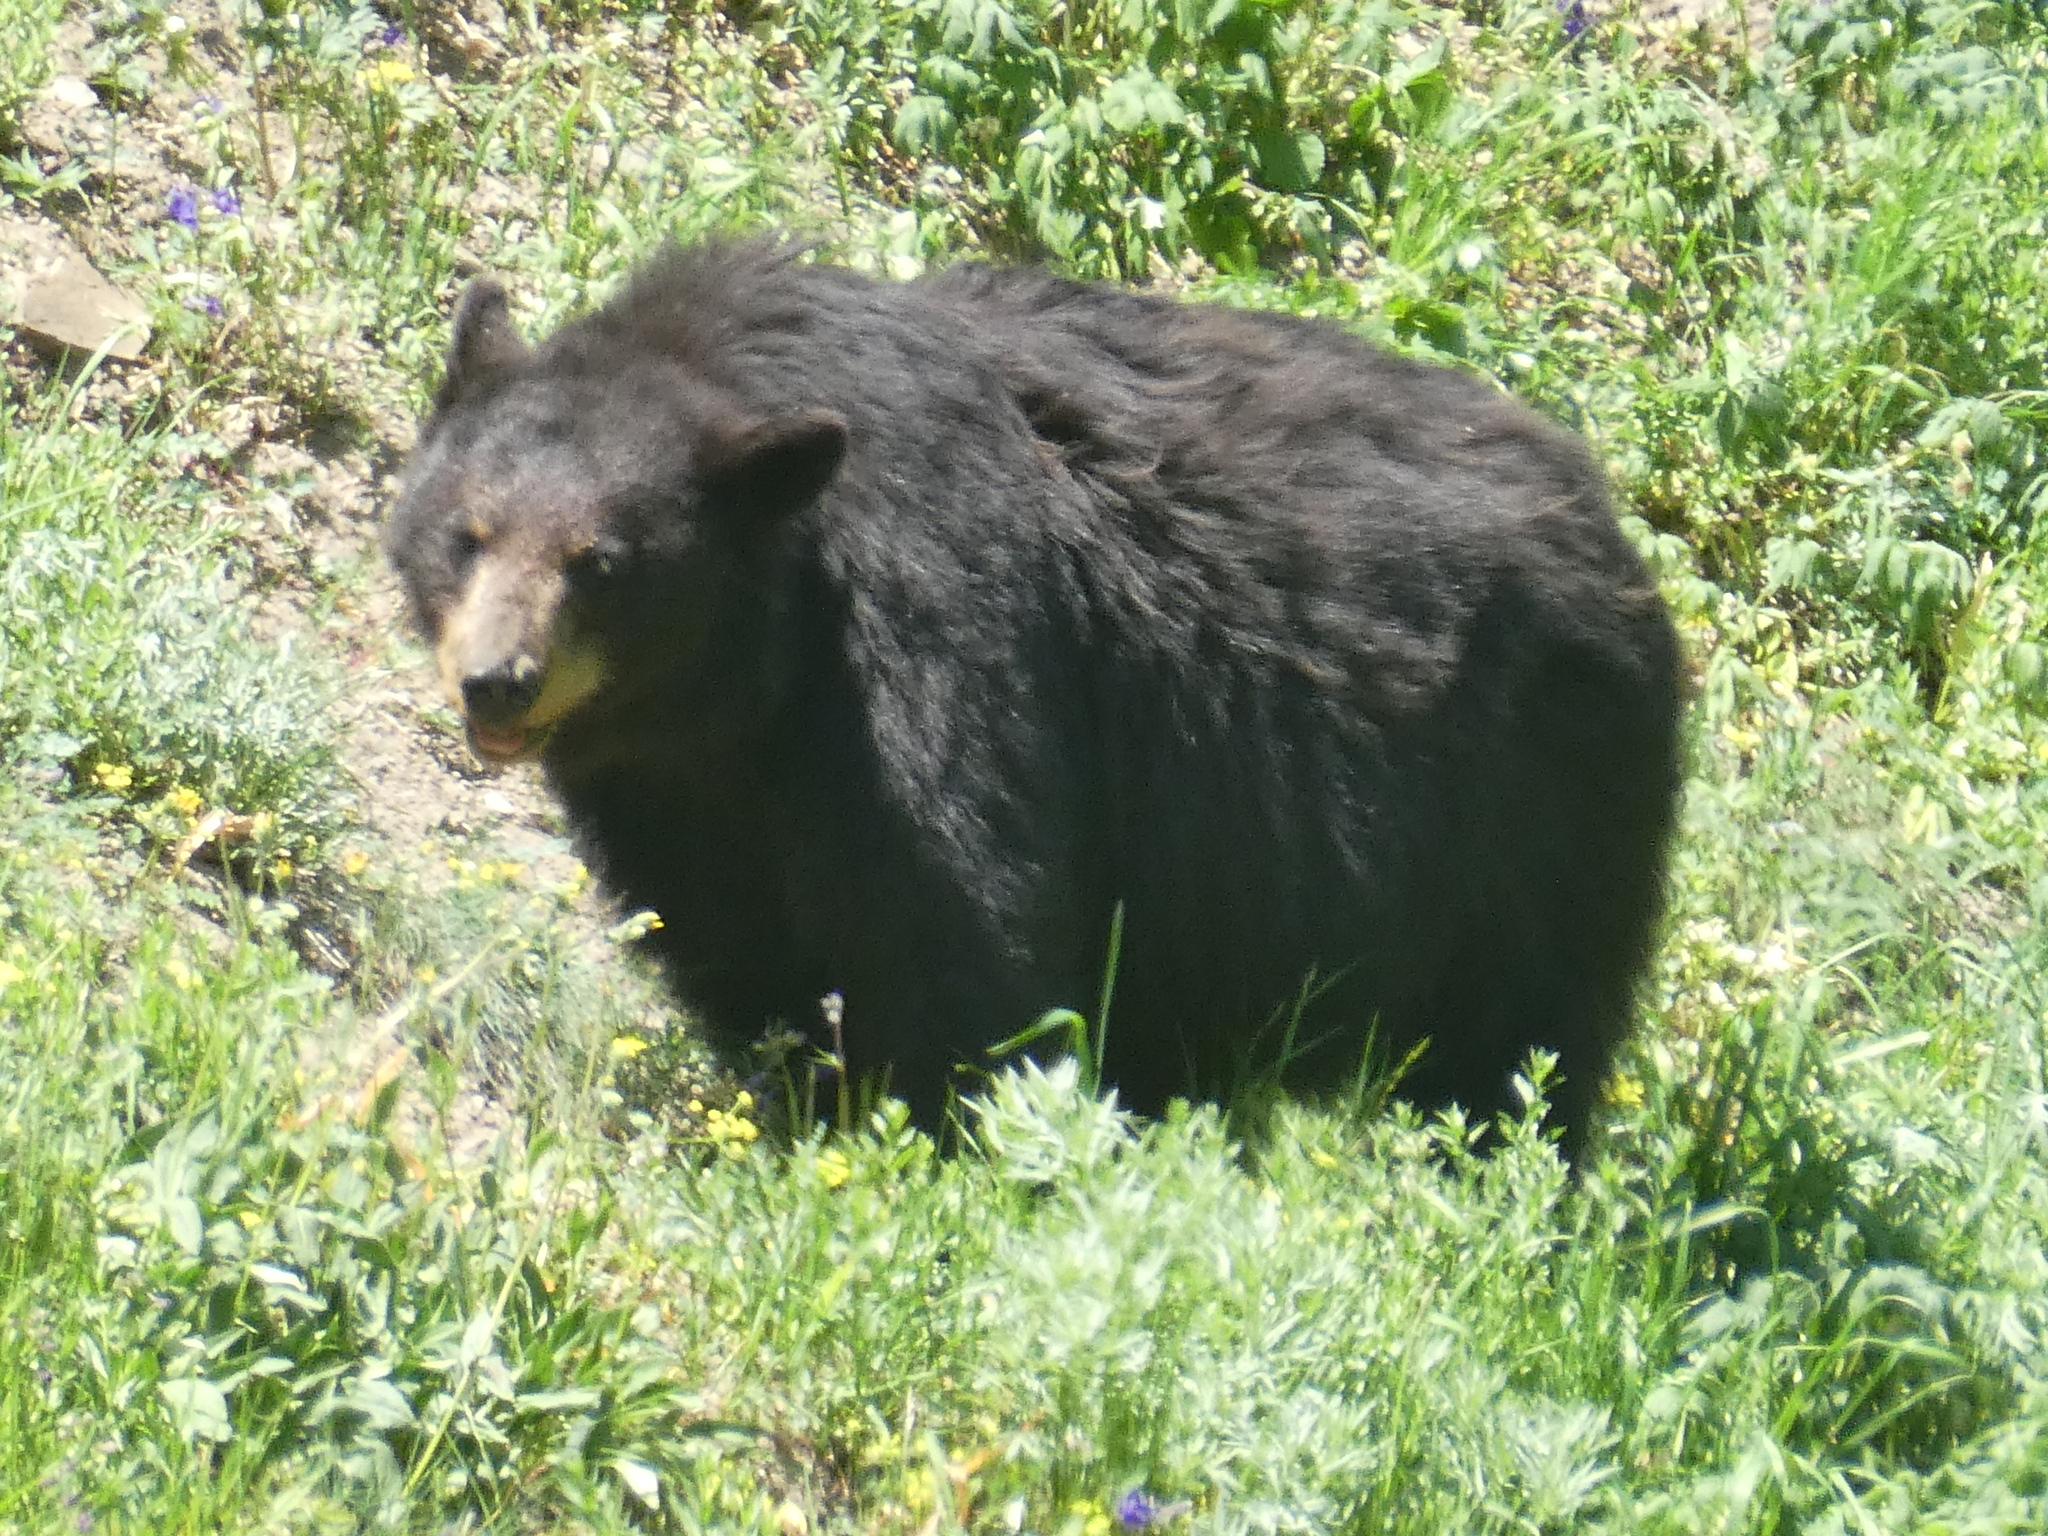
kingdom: Animalia
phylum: Chordata
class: Mammalia
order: Carnivora
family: Ursidae
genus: Ursus
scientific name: Ursus americanus
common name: American black bear
